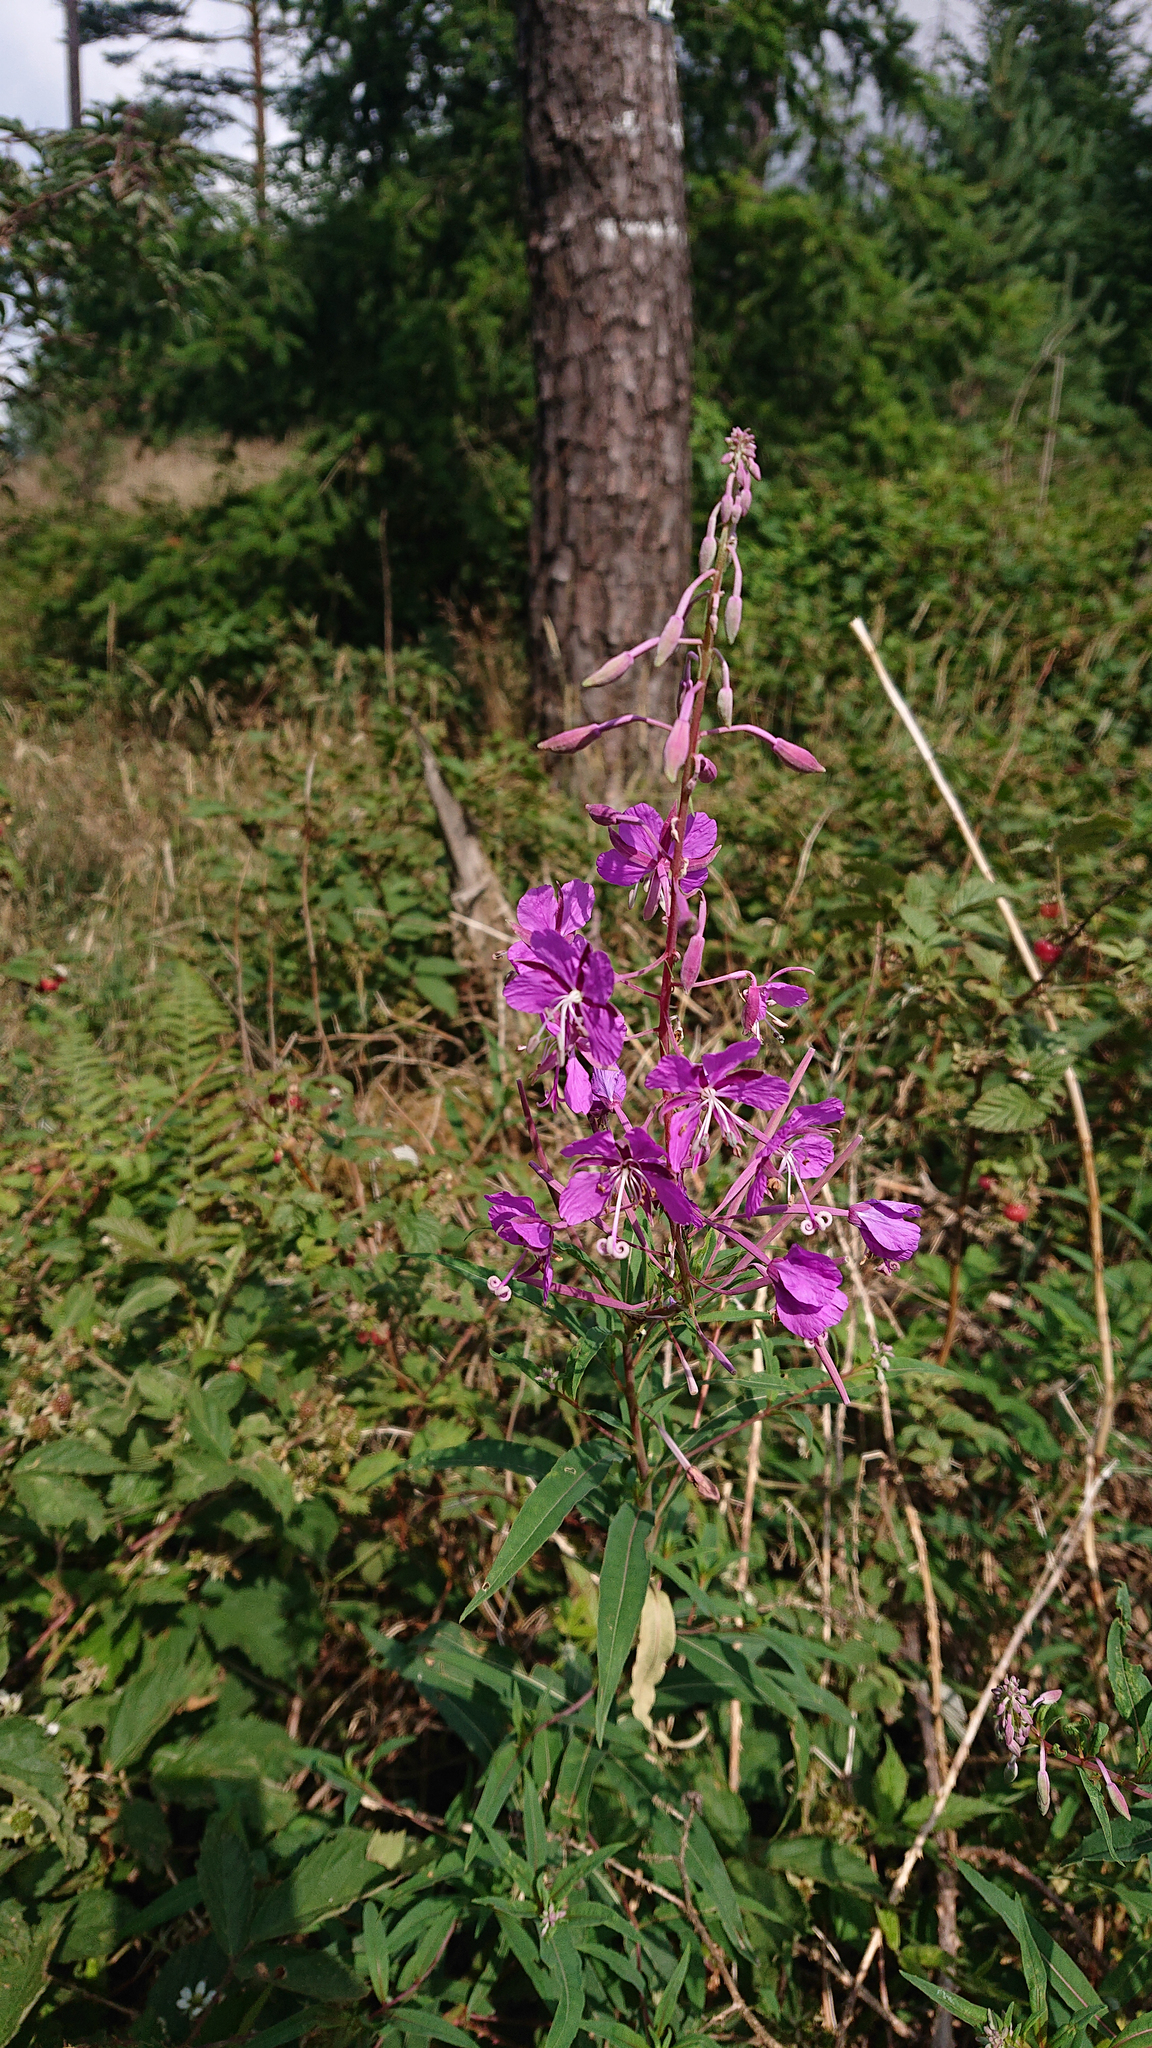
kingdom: Plantae
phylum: Tracheophyta
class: Magnoliopsida
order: Myrtales
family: Onagraceae
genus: Chamaenerion
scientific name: Chamaenerion angustifolium
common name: Fireweed
